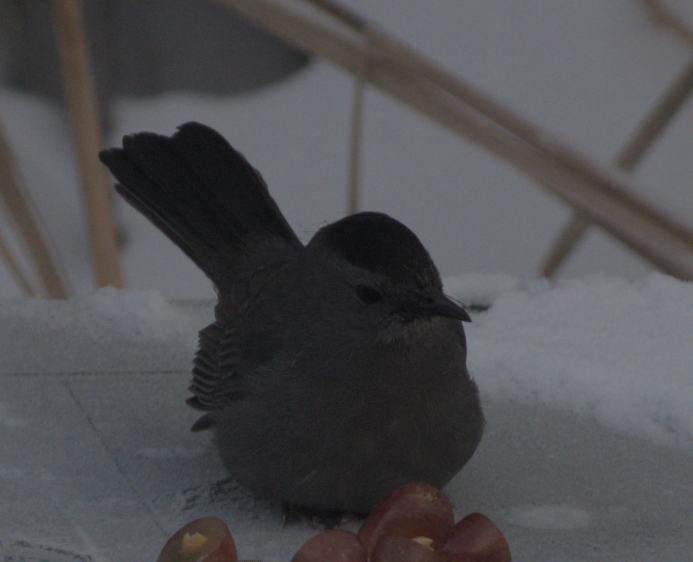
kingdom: Animalia
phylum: Chordata
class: Aves
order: Passeriformes
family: Mimidae
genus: Dumetella
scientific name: Dumetella carolinensis
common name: Gray catbird
